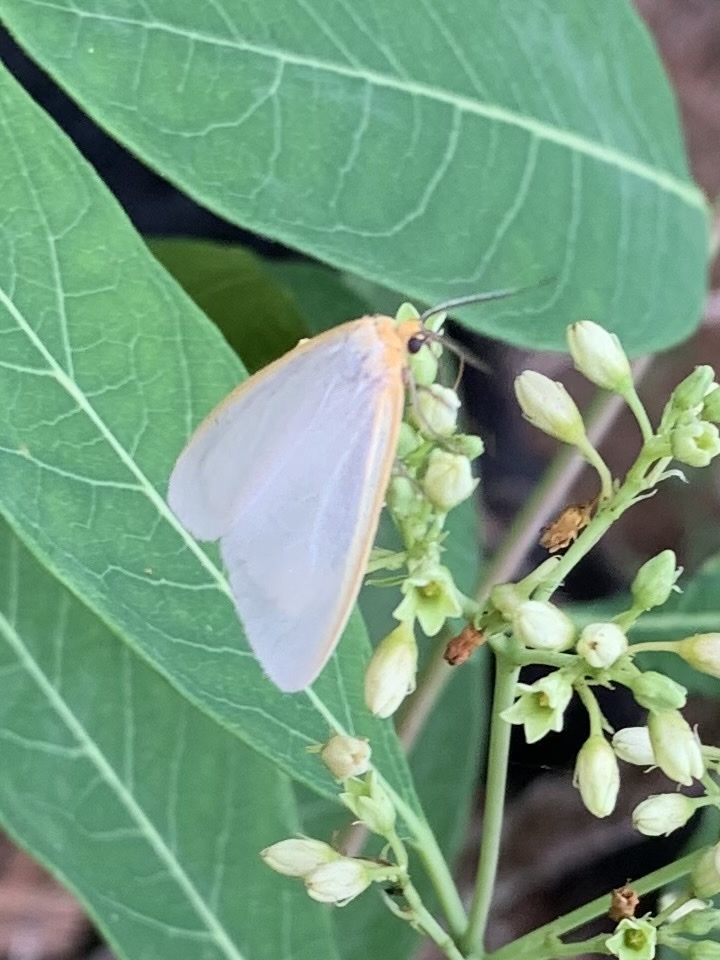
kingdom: Animalia
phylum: Arthropoda
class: Insecta
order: Lepidoptera
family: Erebidae
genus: Cycnia
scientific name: Cycnia tenera
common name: Delicate cycnia moth
